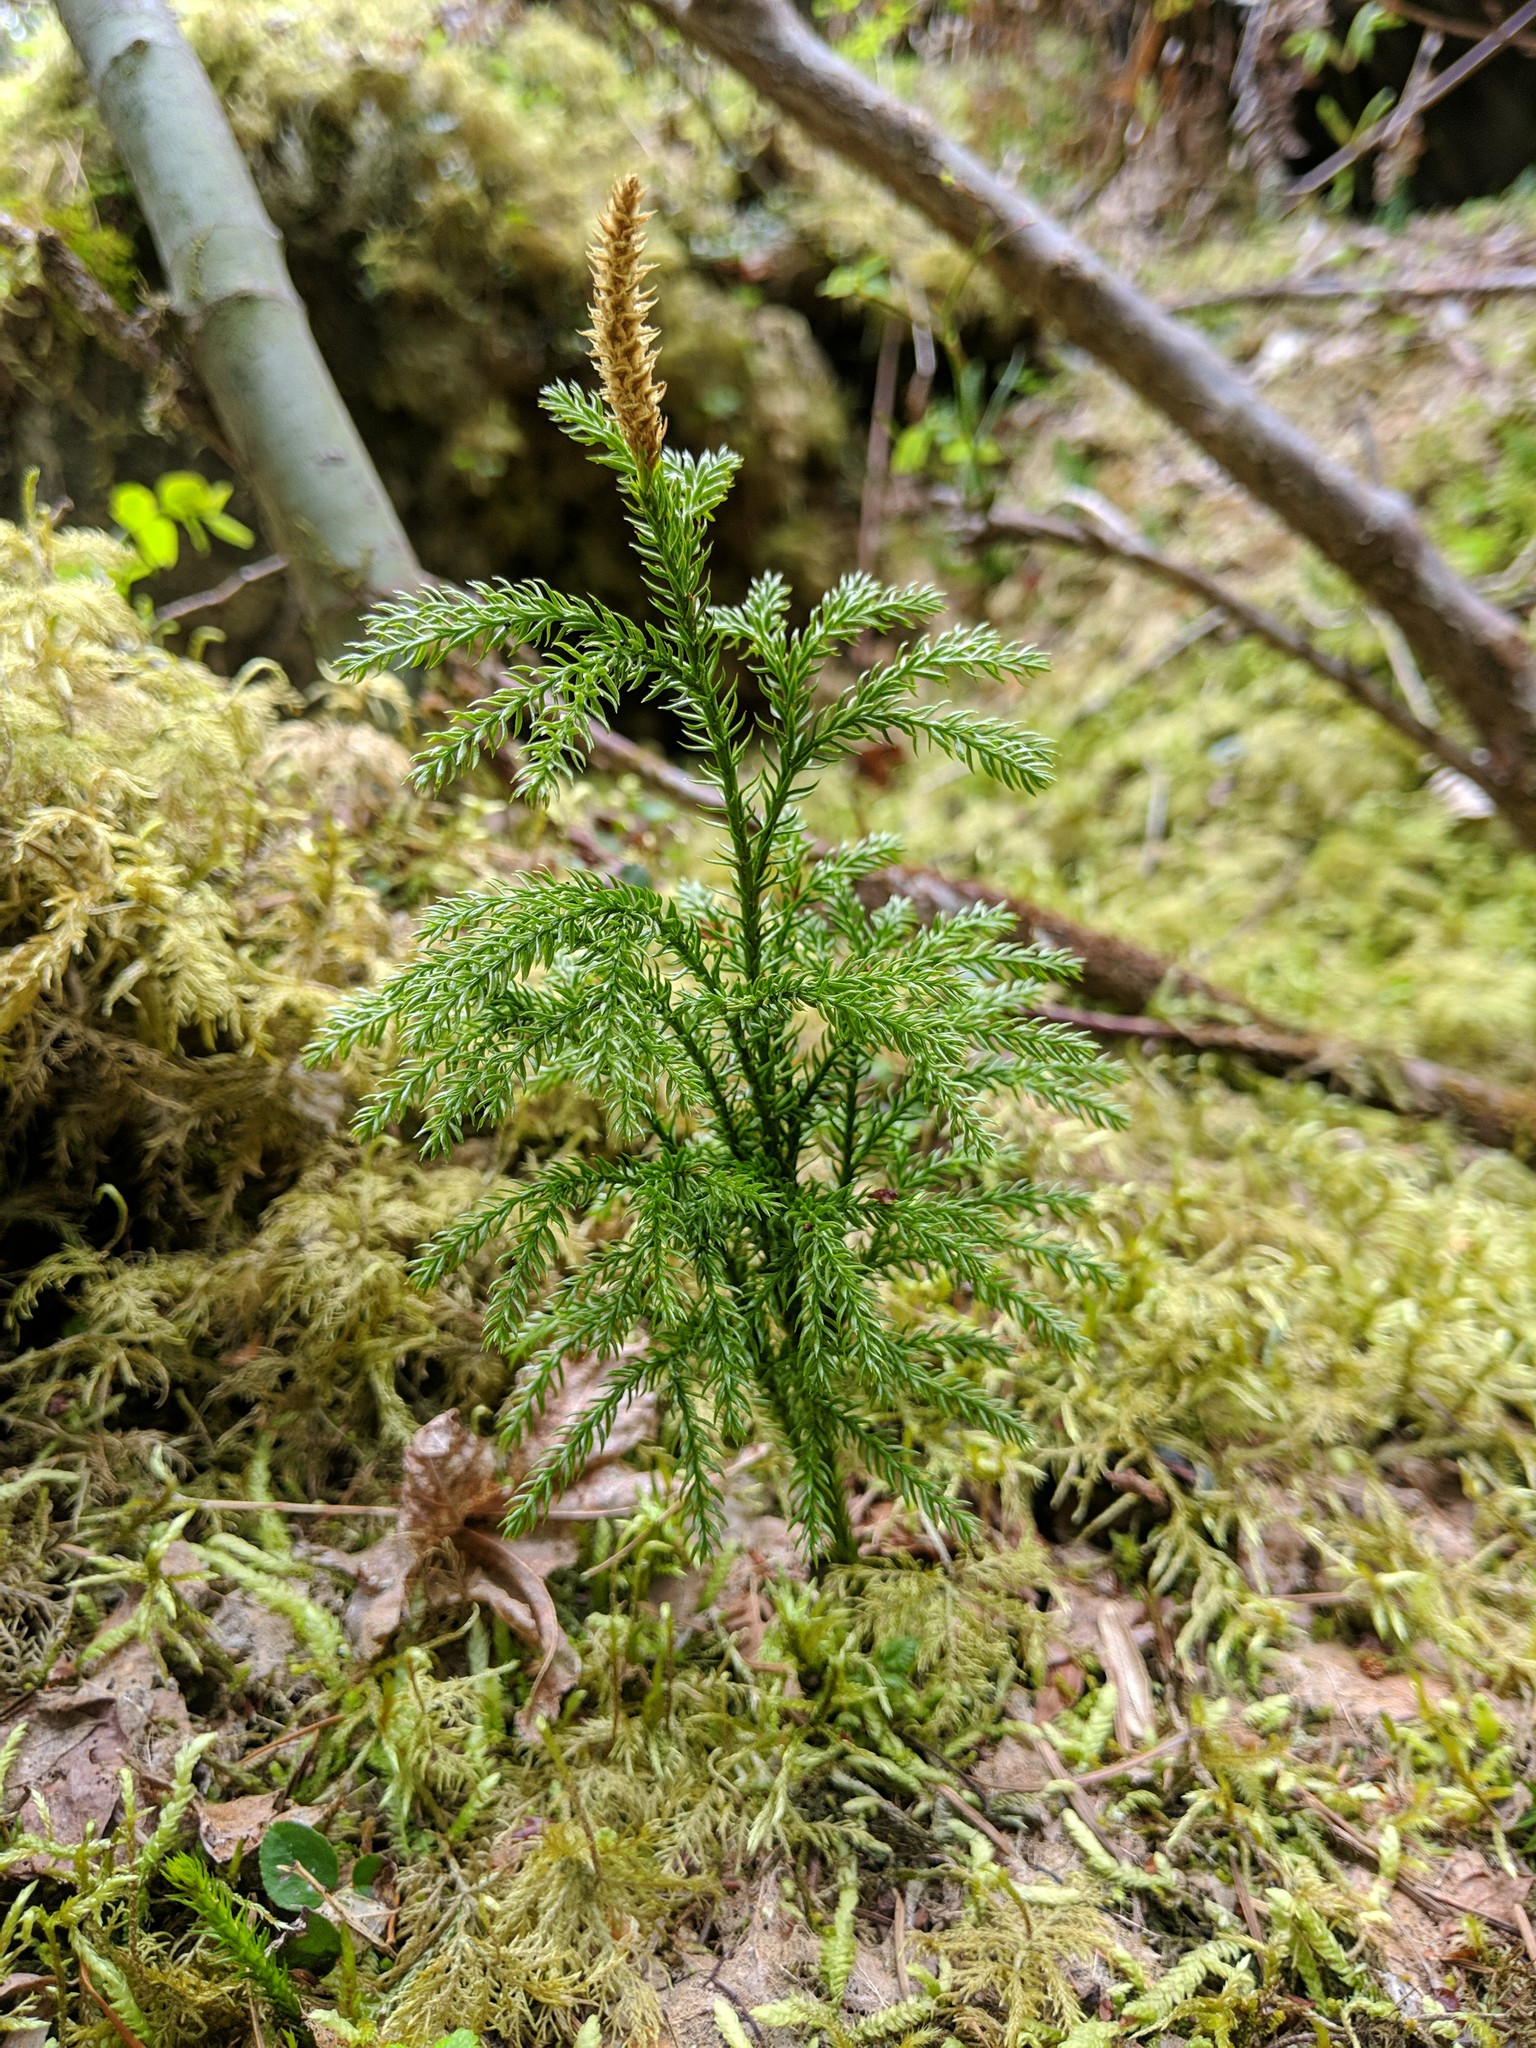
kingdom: Plantae
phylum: Tracheophyta
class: Lycopodiopsida
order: Lycopodiales
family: Lycopodiaceae
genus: Dendrolycopodium
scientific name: Dendrolycopodium dendroideum
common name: Northern tree-clubmoss
